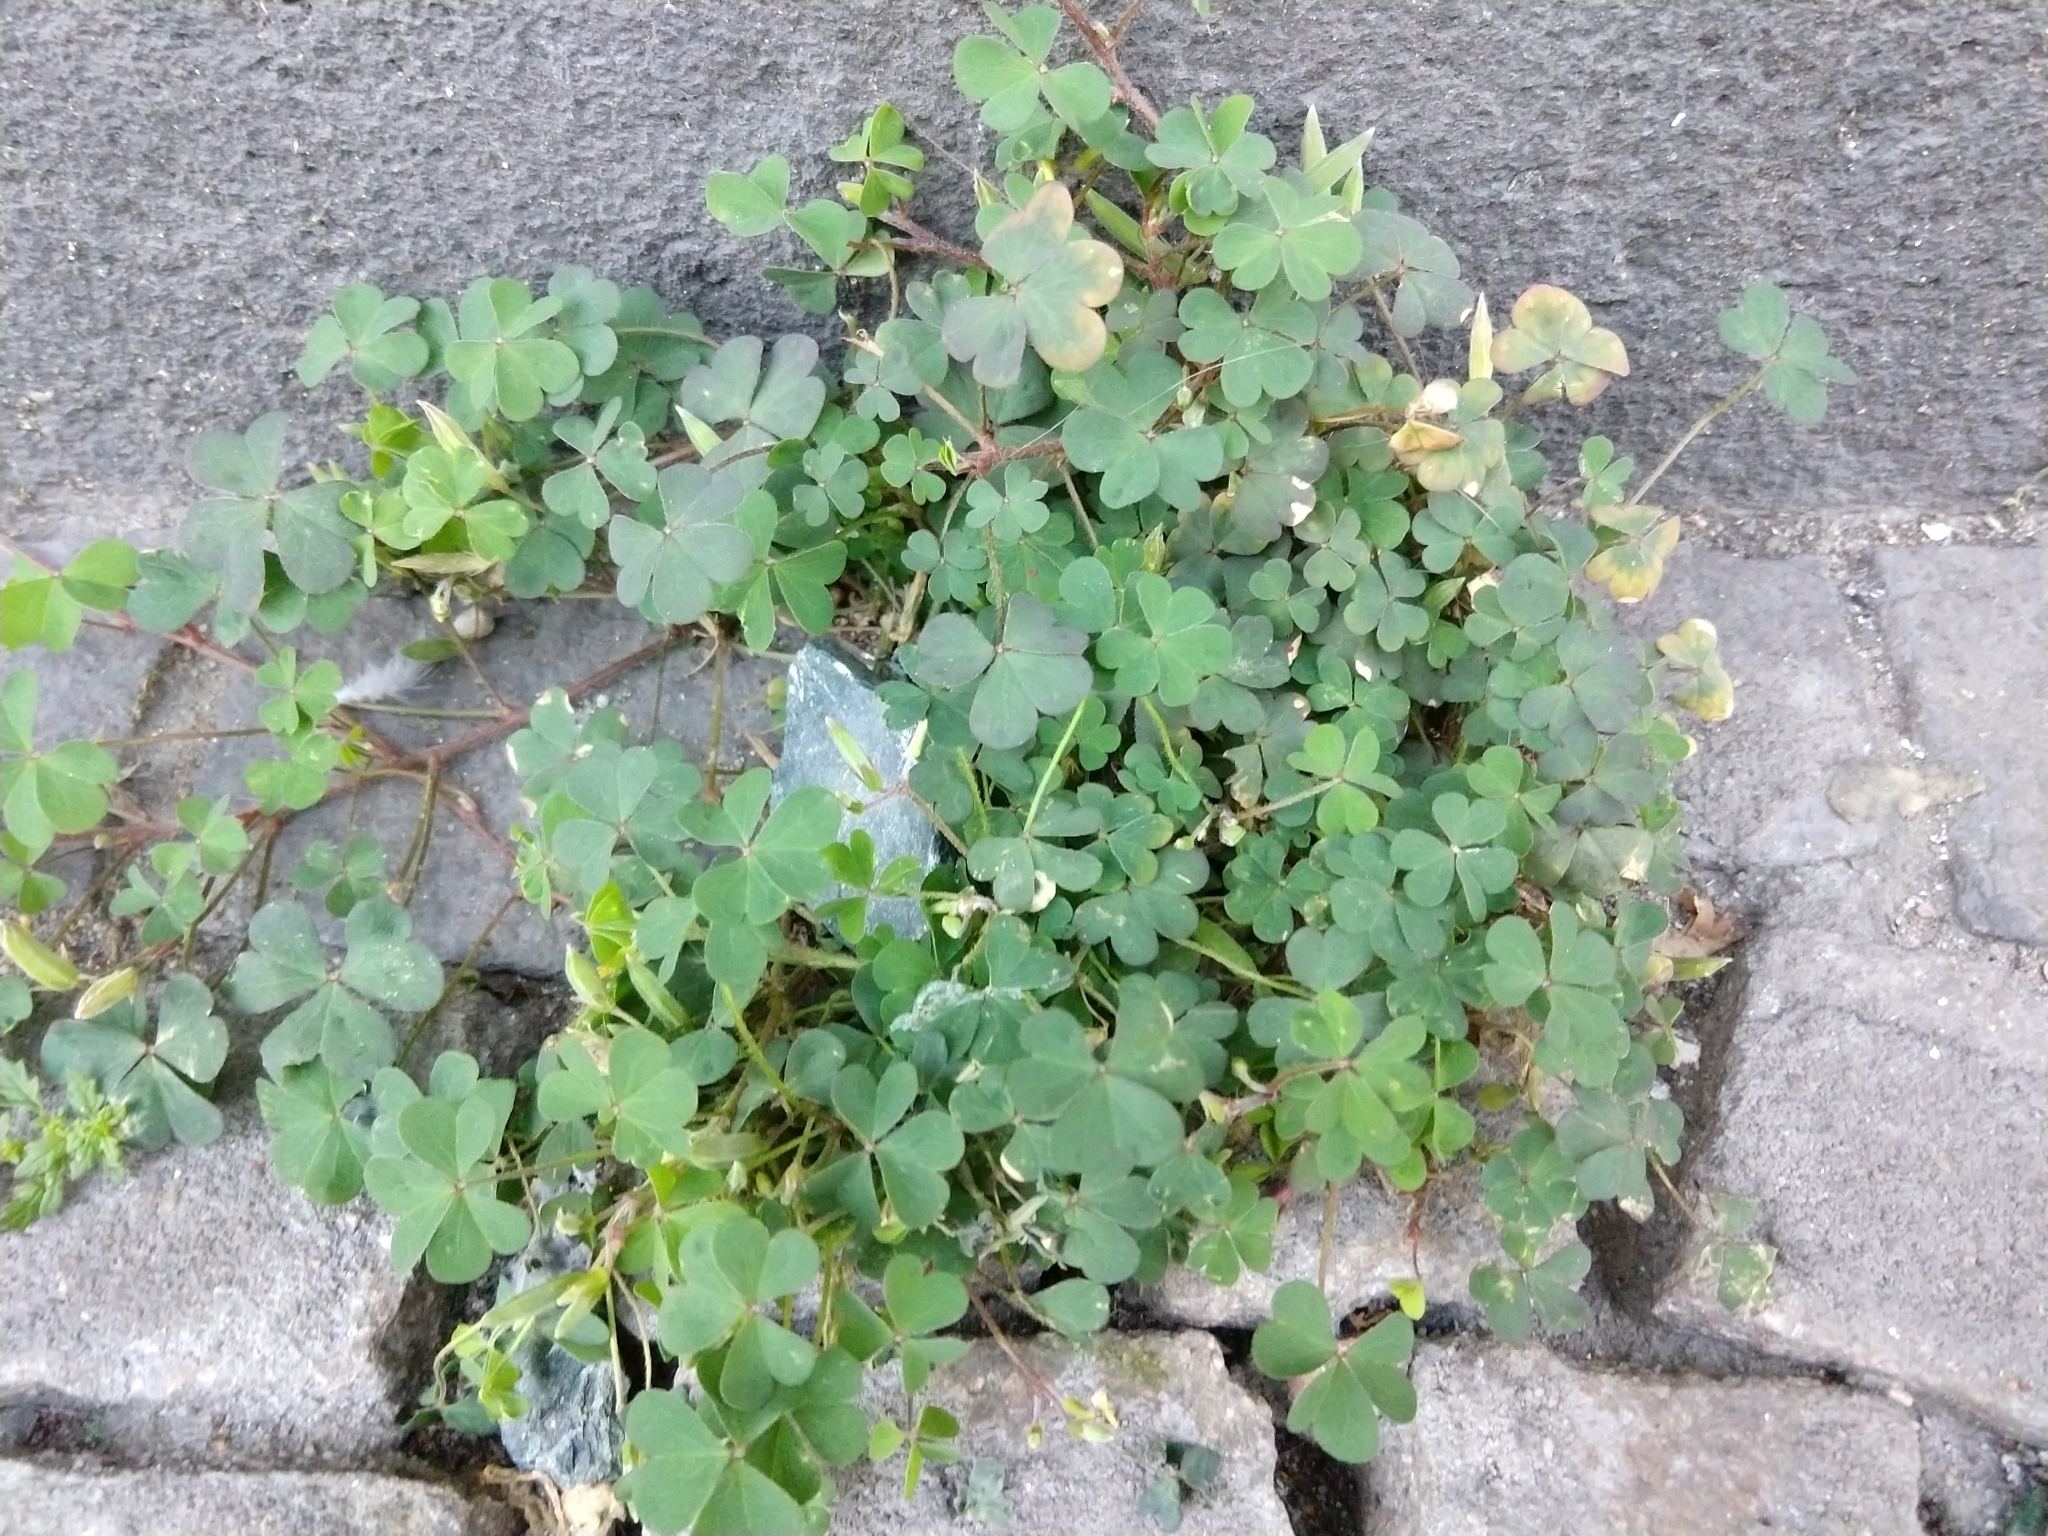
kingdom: Plantae
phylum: Tracheophyta
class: Magnoliopsida
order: Oxalidales
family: Oxalidaceae
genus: Oxalis
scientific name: Oxalis corniculata
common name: Procumbent yellow-sorrel
